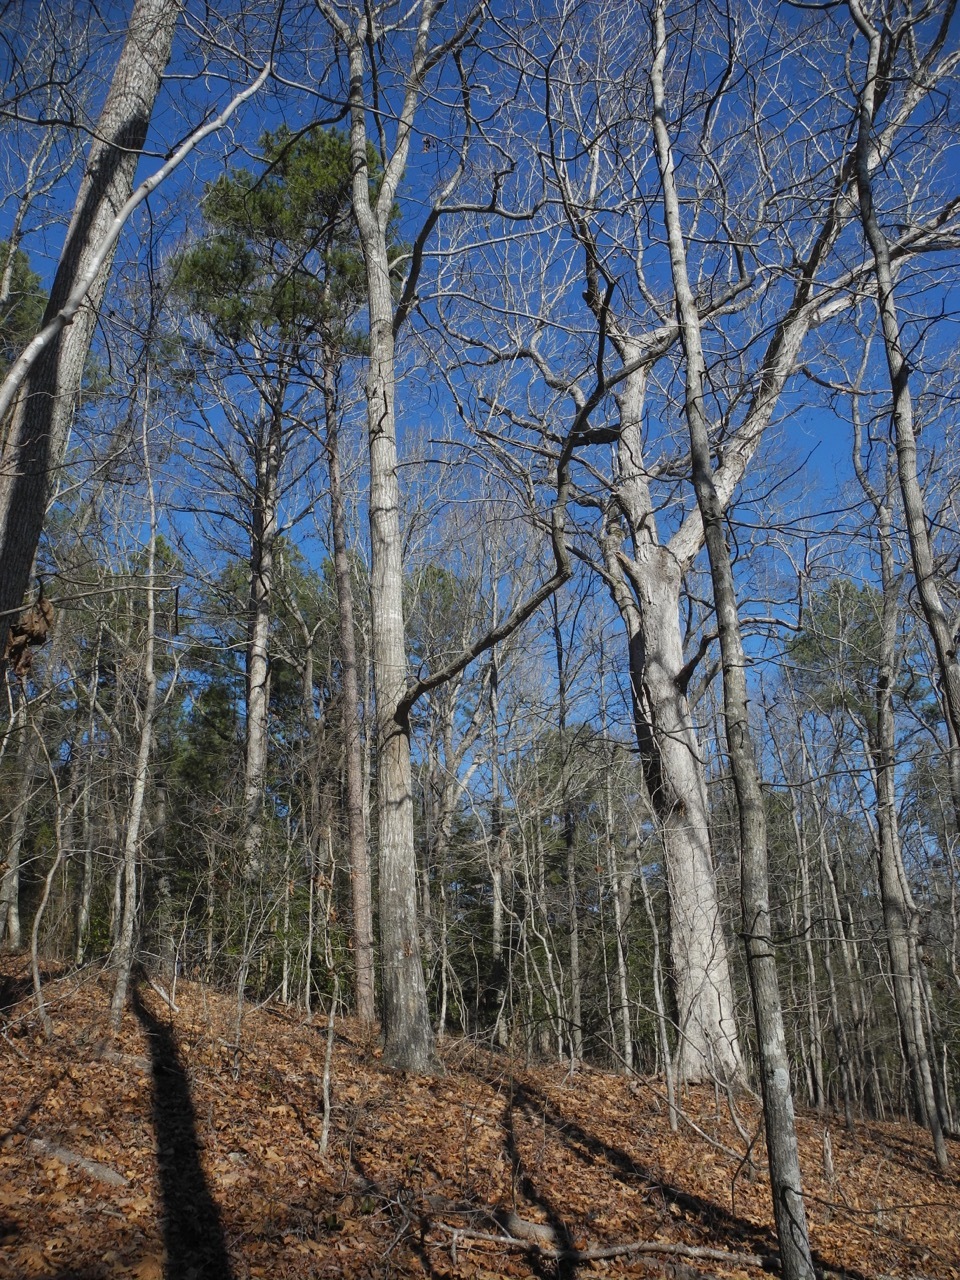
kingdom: Plantae
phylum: Tracheophyta
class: Magnoliopsida
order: Fagales
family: Fagaceae
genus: Quercus
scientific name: Quercus rubra
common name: Red oak
